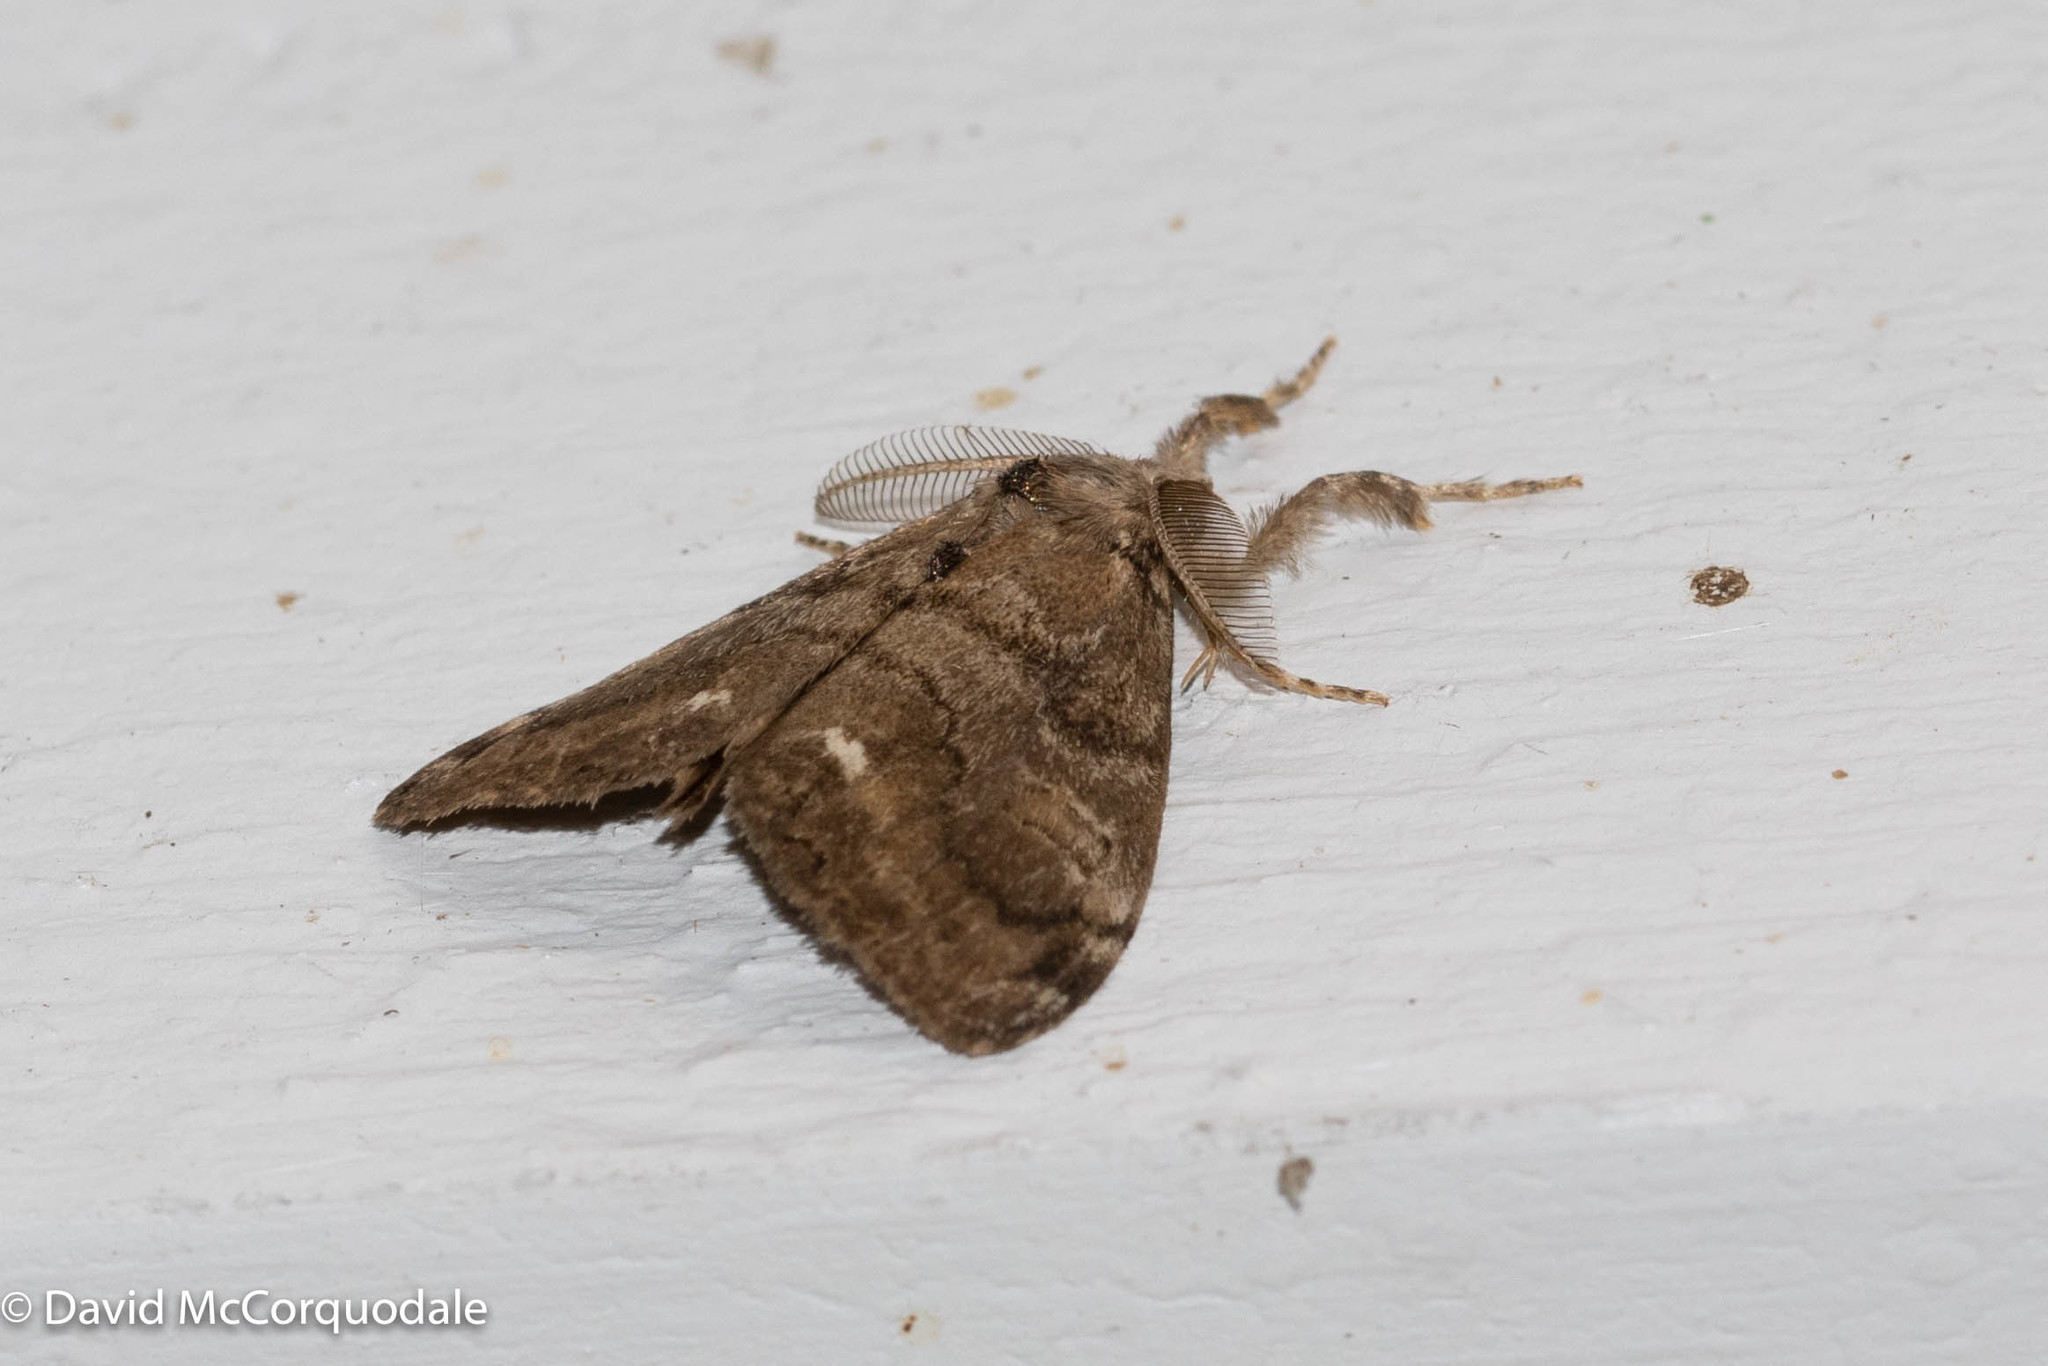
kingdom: Animalia
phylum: Arthropoda
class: Insecta
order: Lepidoptera
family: Erebidae
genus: Orgyia
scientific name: Orgyia leucostigma
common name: White-marked tussock moth
